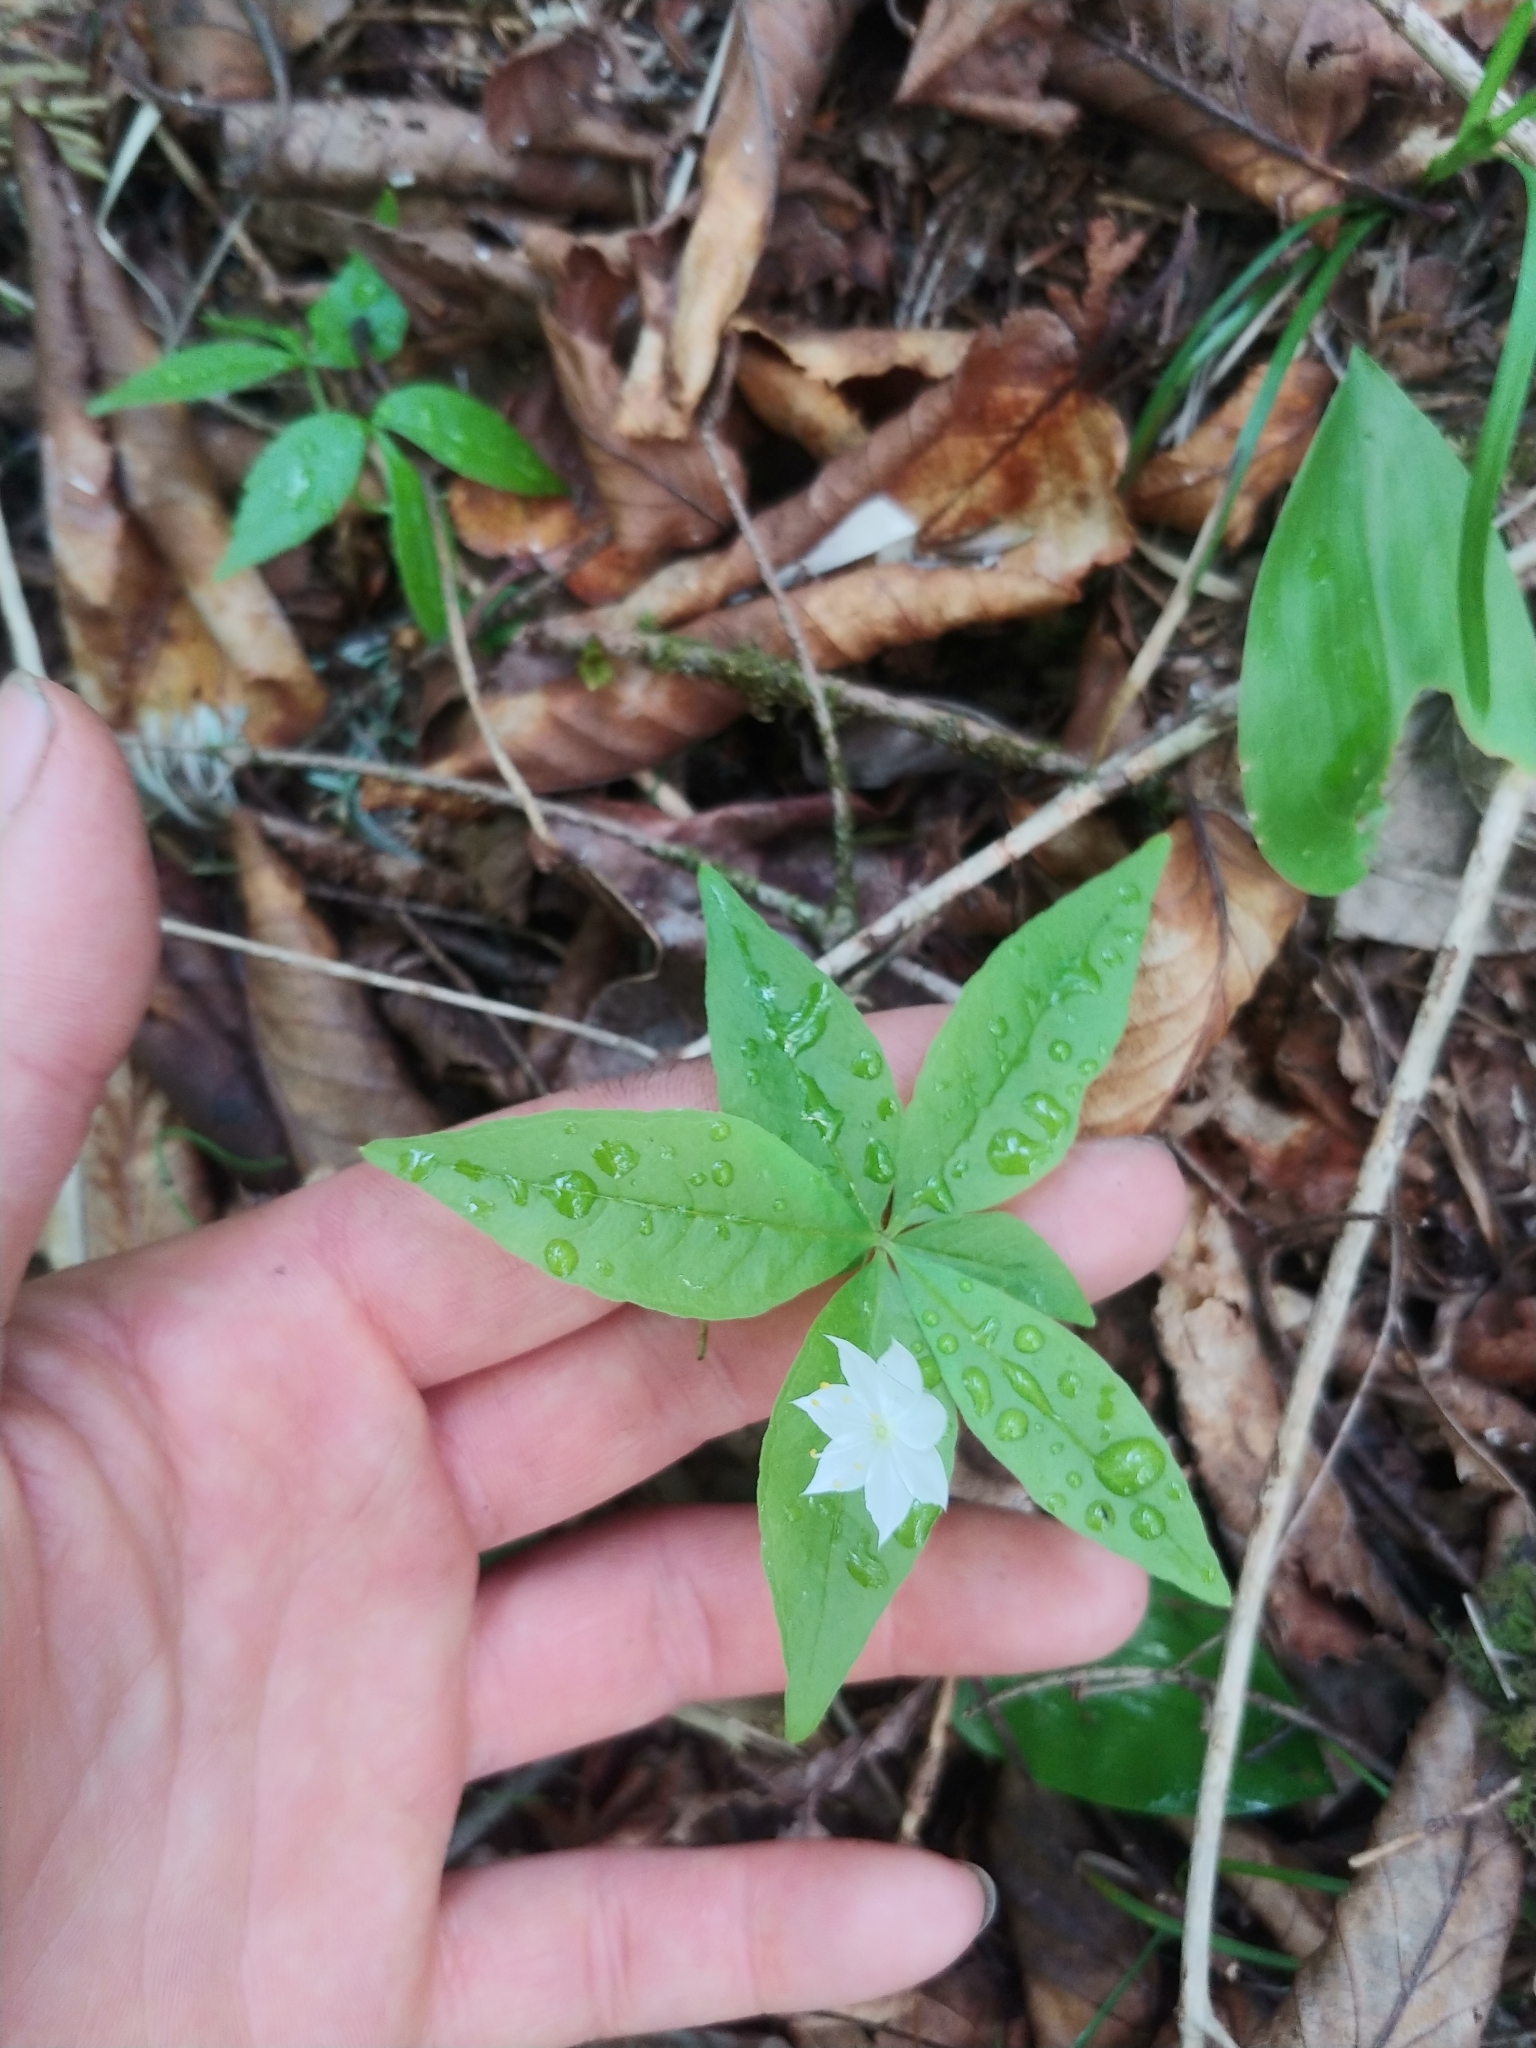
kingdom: Plantae
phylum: Tracheophyta
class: Magnoliopsida
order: Ericales
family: Primulaceae
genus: Lysimachia
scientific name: Lysimachia borealis
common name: American starflower
